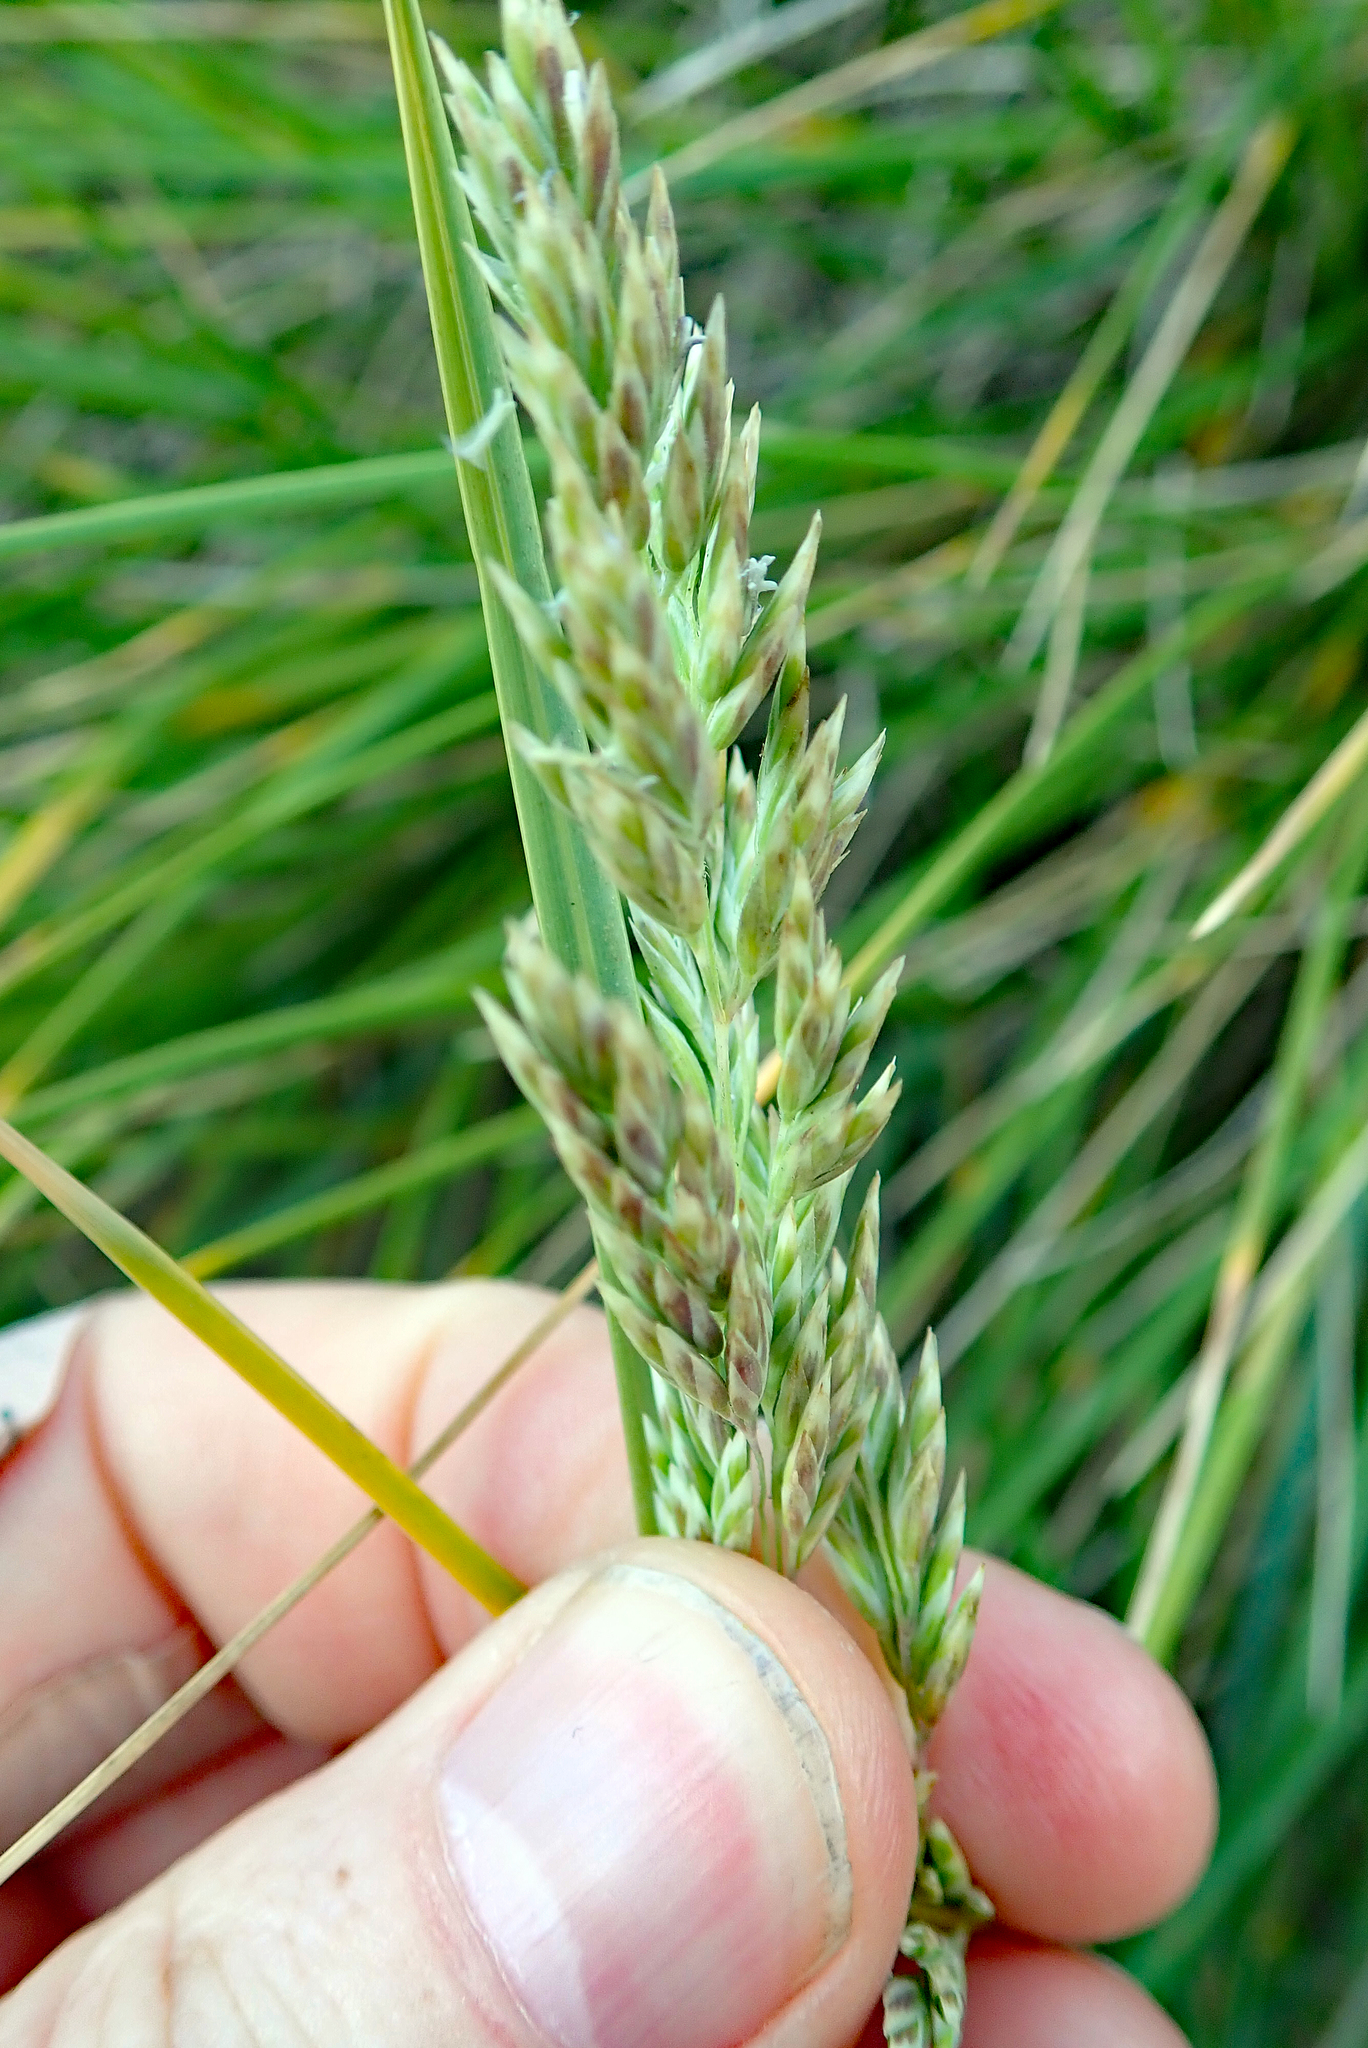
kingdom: Plantae
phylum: Tracheophyta
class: Liliopsida
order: Poales
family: Poaceae
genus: Poa
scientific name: Poa chathamica
